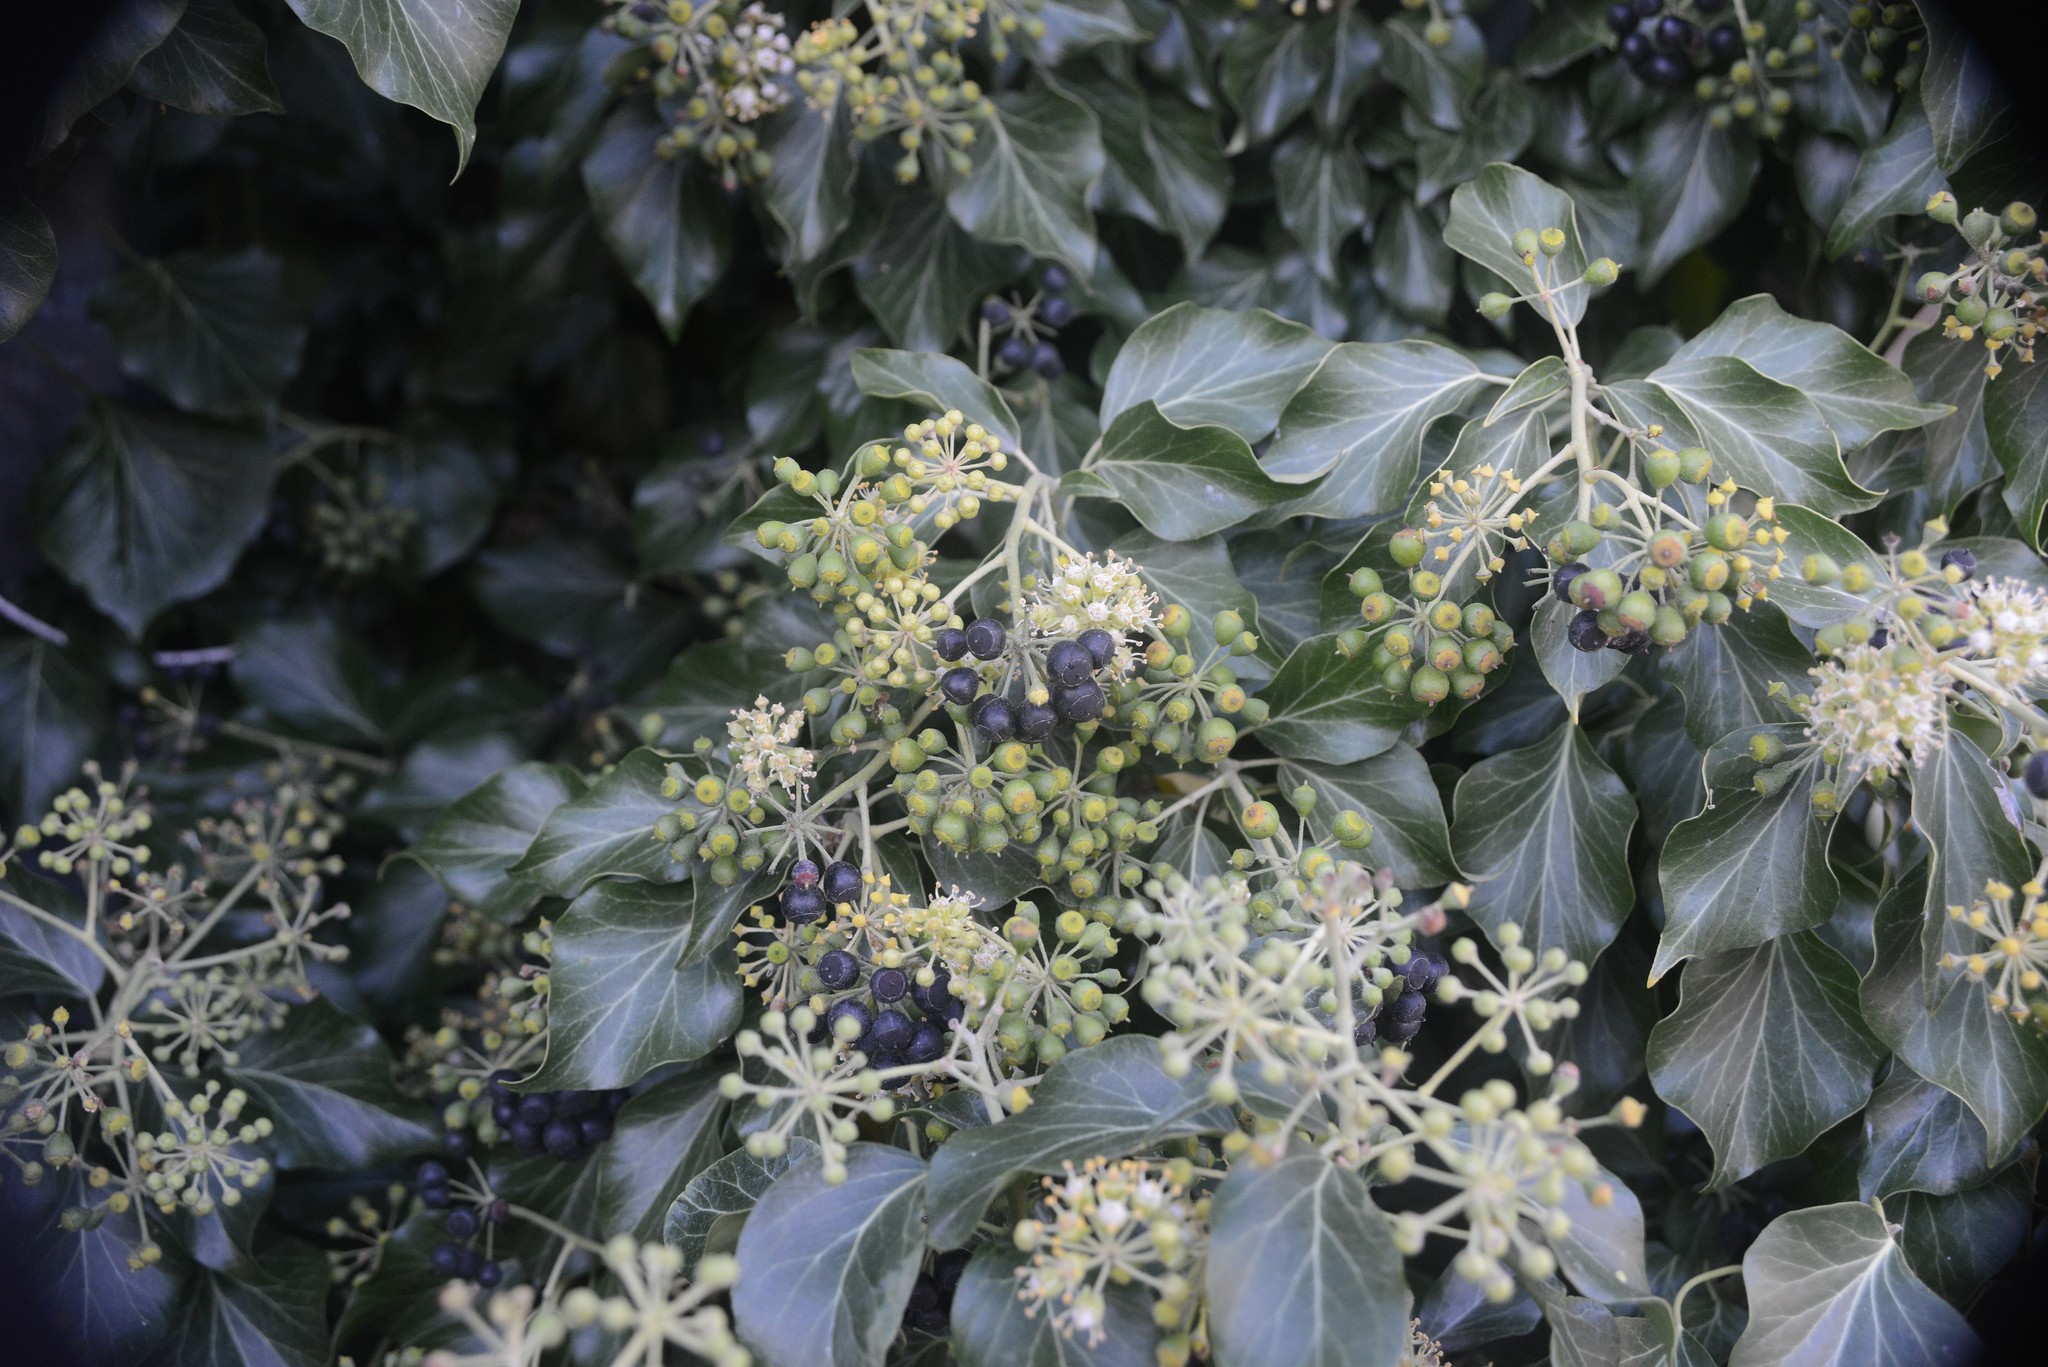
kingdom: Plantae
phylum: Tracheophyta
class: Magnoliopsida
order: Apiales
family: Araliaceae
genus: Hedera
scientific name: Hedera helix
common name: Ivy
